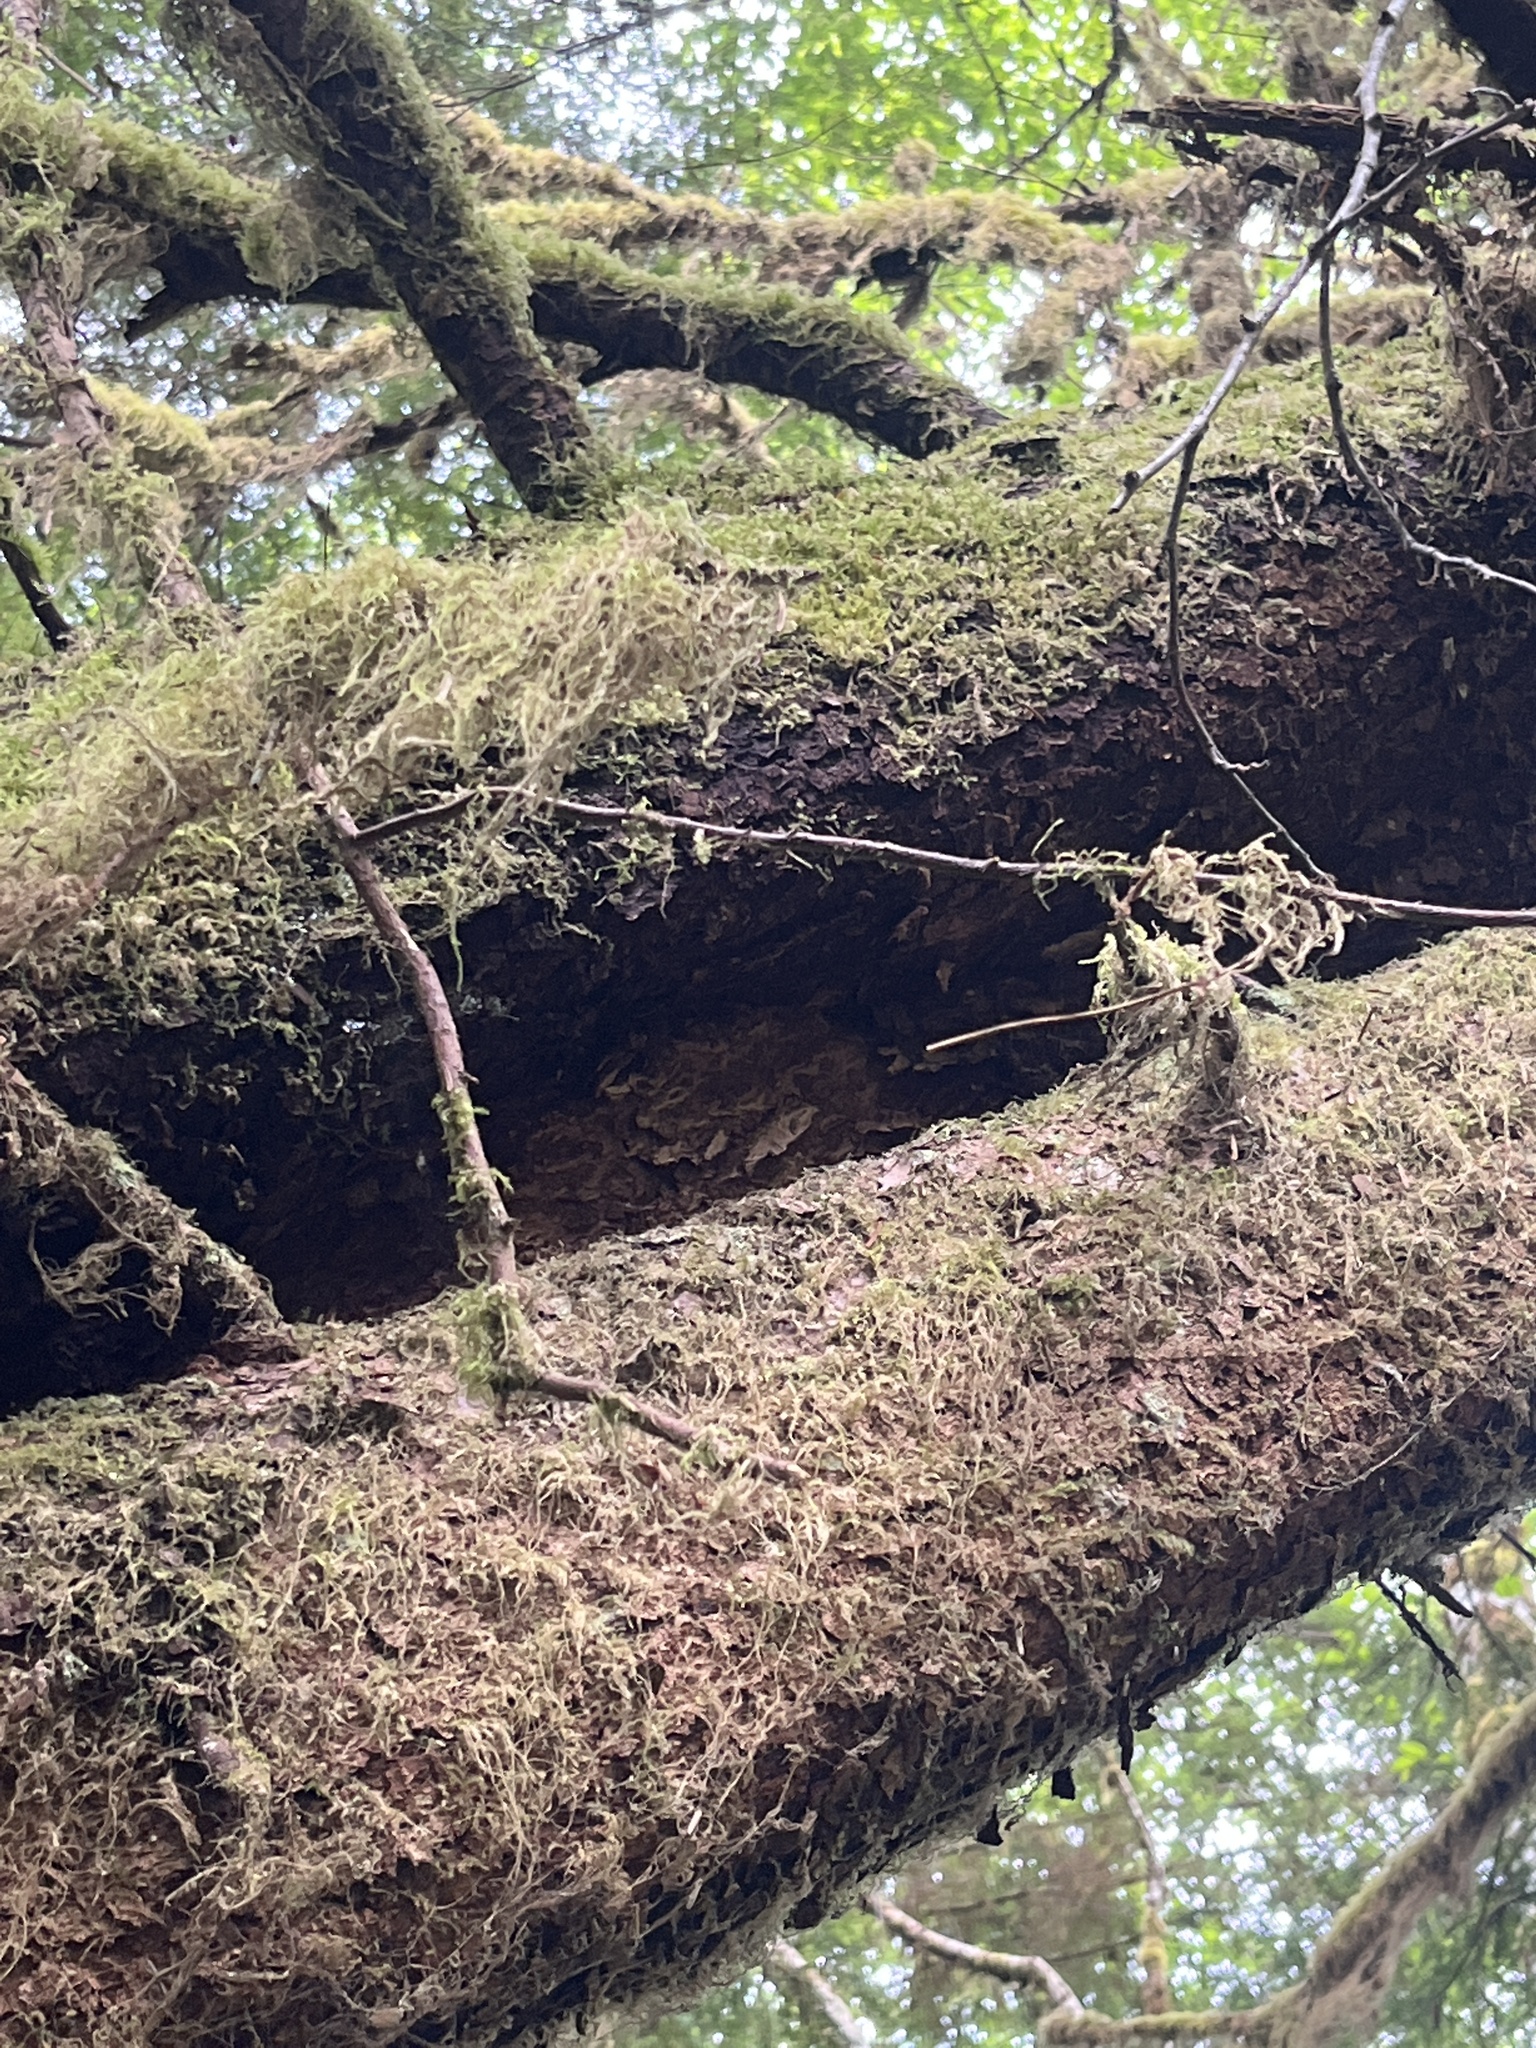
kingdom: Plantae
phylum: Tracheophyta
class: Pinopsida
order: Pinales
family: Pinaceae
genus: Tsuga
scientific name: Tsuga heterophylla
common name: Western hemlock
